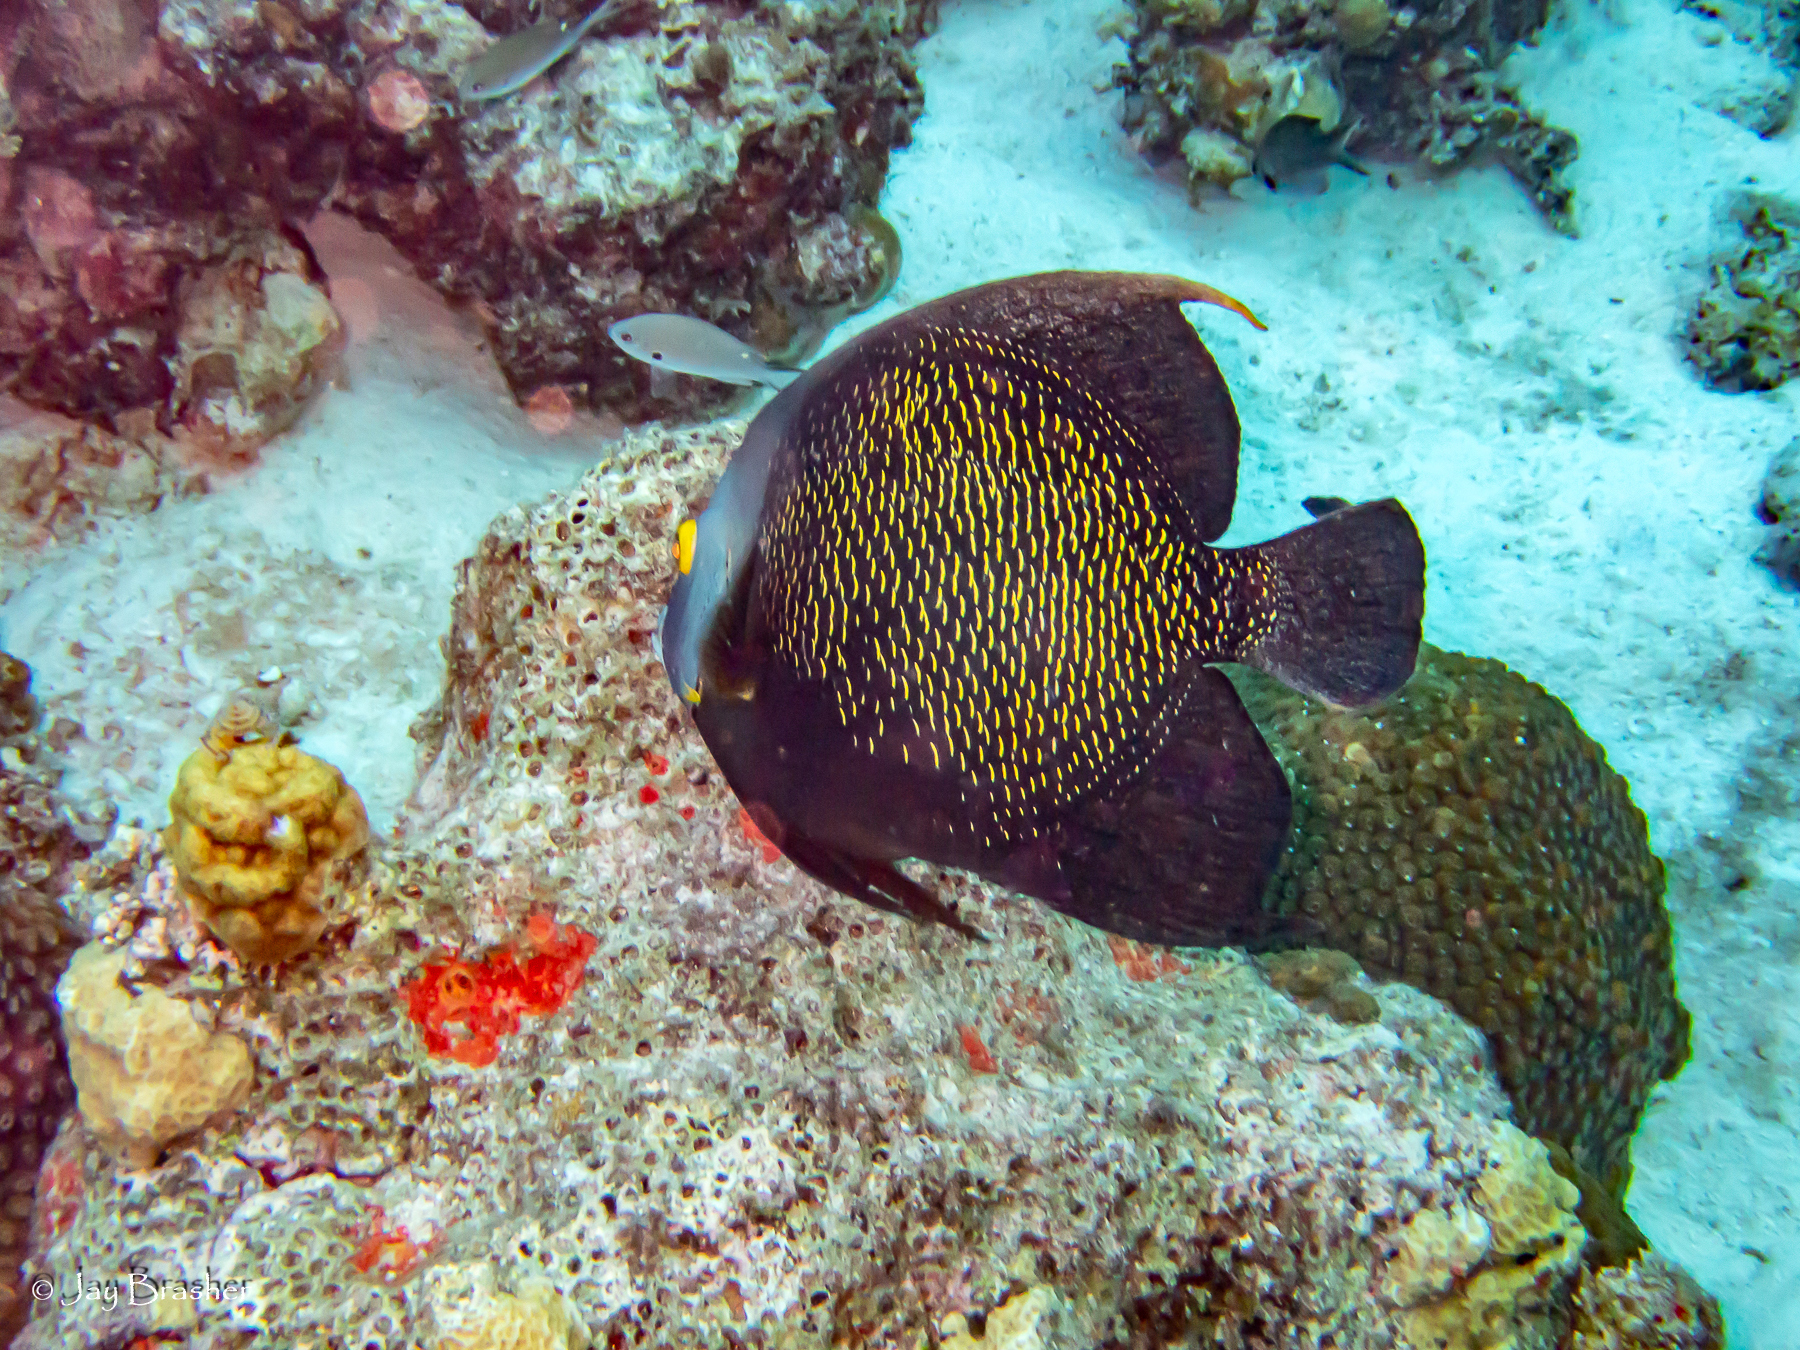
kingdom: Animalia
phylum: Porifera
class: Demospongiae
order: Clionaida
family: Clionaidae
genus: Cliothosa
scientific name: Cliothosa delitrix
